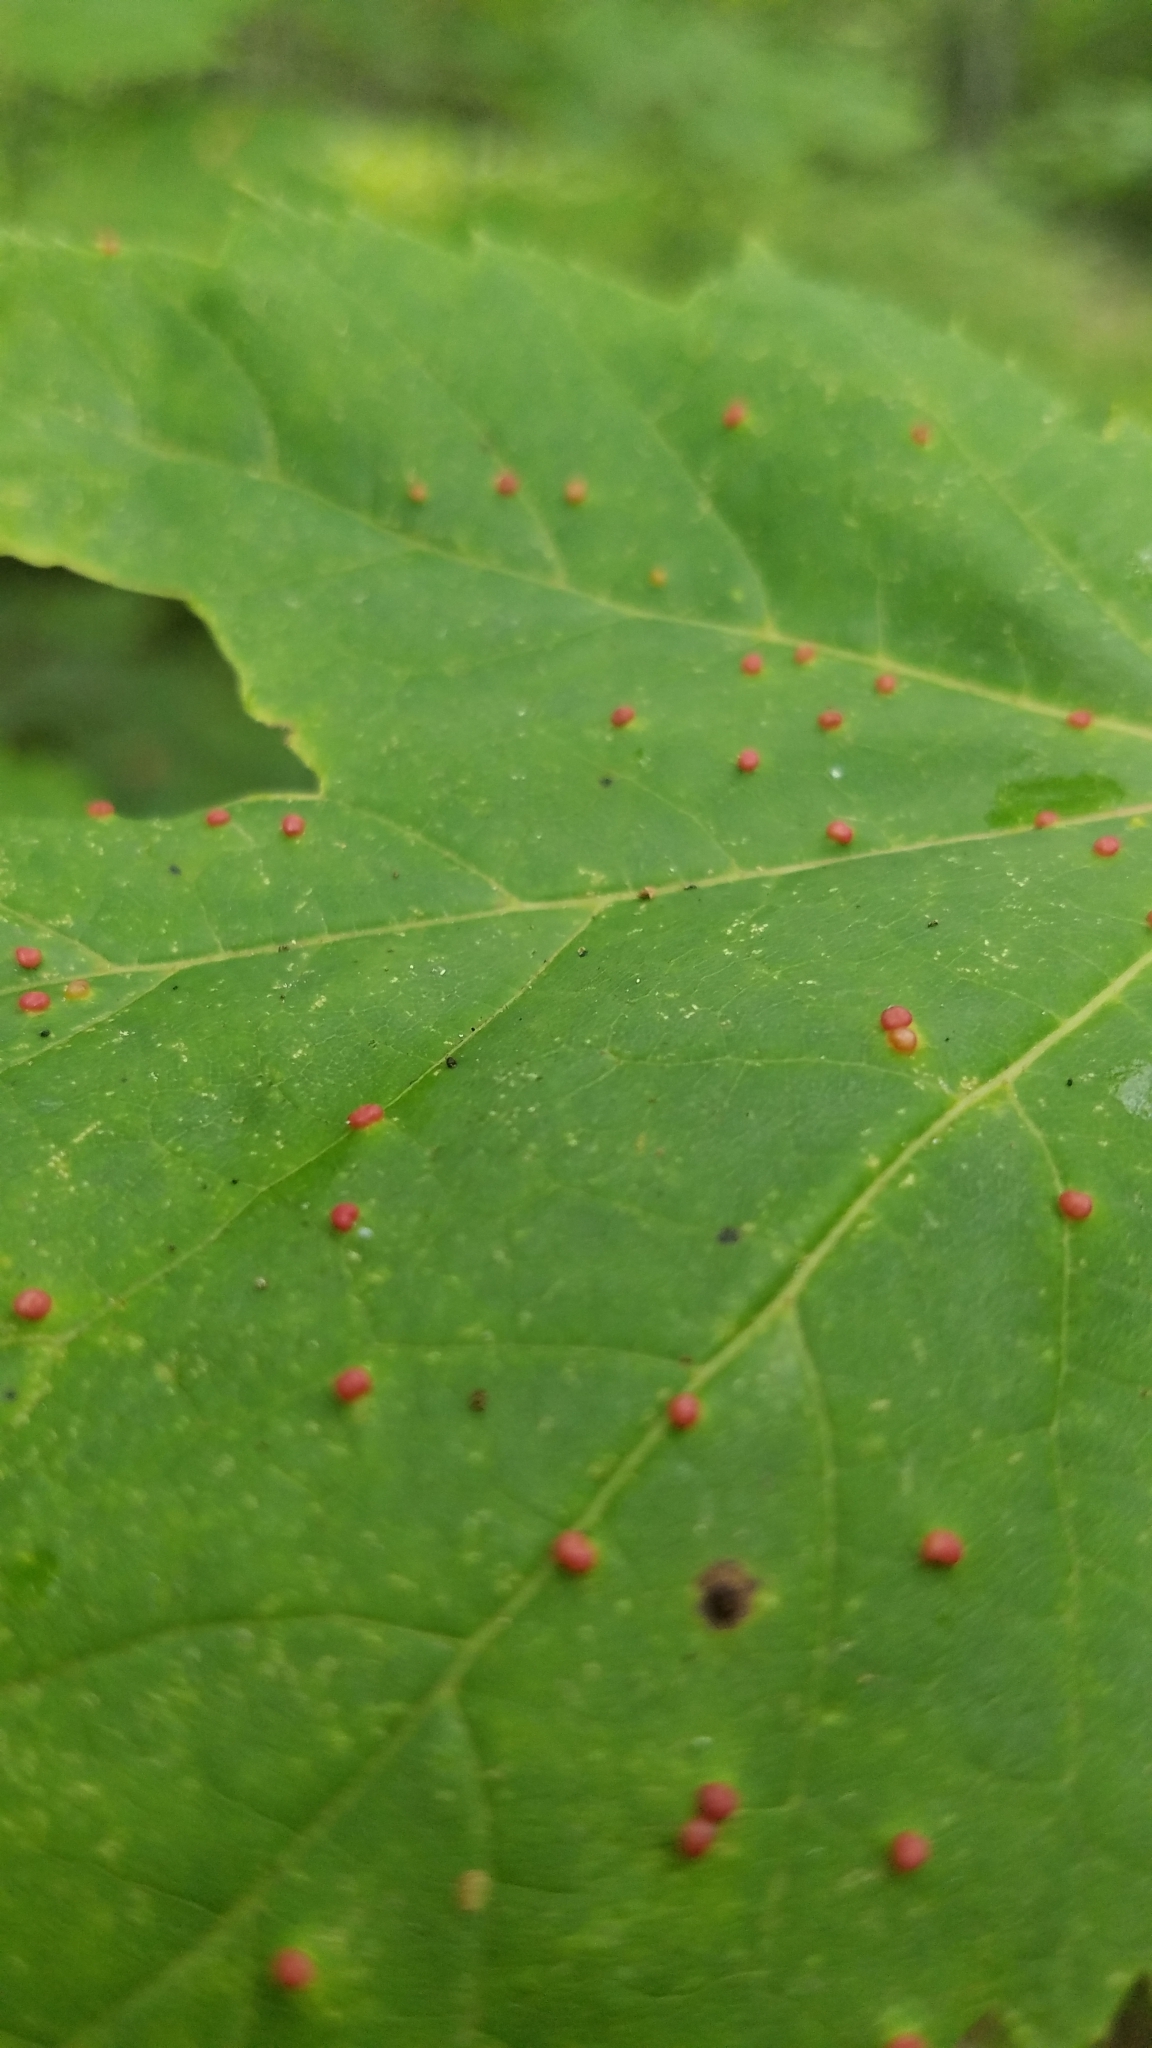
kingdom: Animalia
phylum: Arthropoda
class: Arachnida
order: Trombidiformes
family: Eriophyidae
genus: Vasates
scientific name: Vasates quadripedes
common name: Maple bladder gall mite
